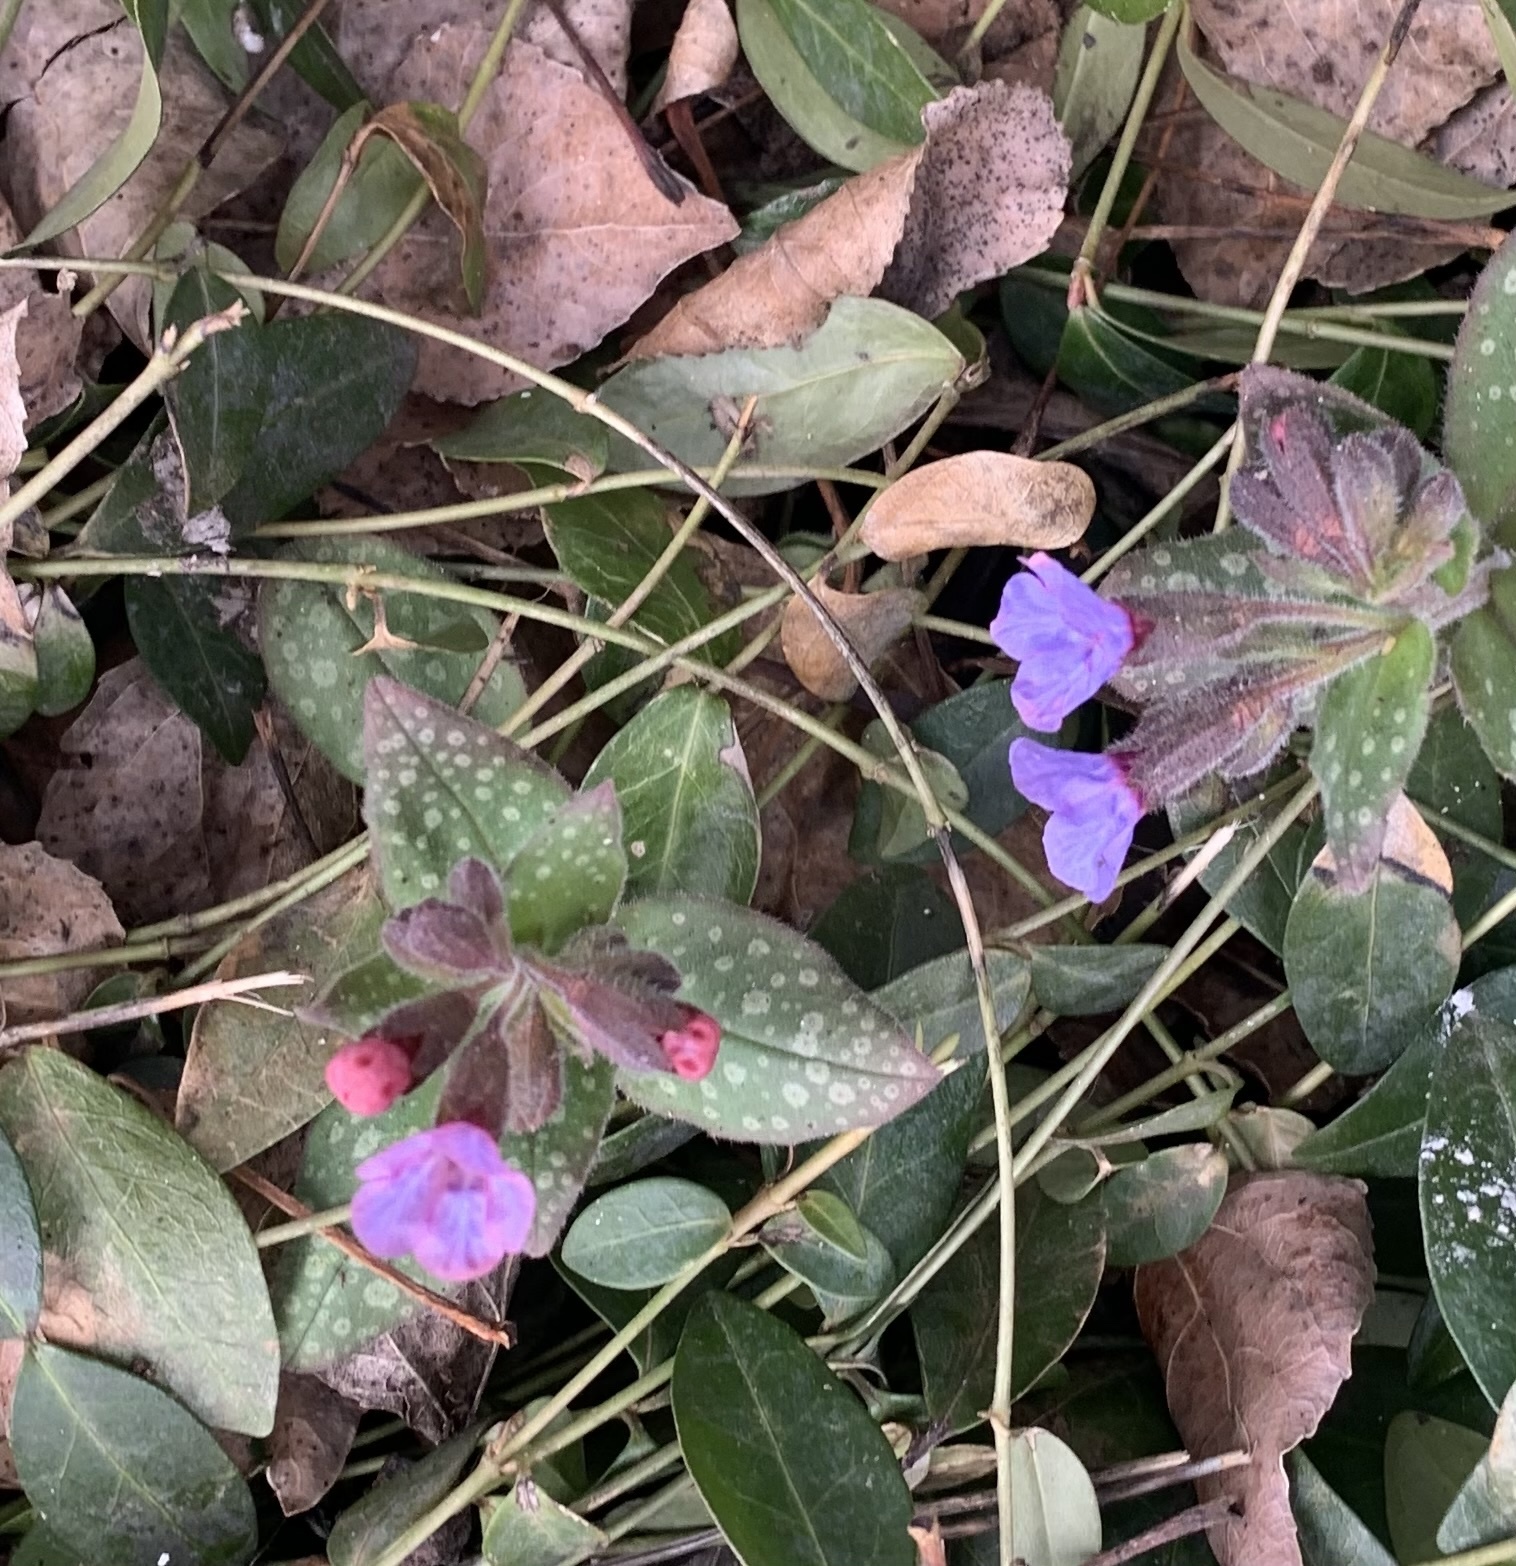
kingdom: Plantae
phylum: Tracheophyta
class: Magnoliopsida
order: Boraginales
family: Boraginaceae
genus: Pulmonaria
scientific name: Pulmonaria officinalis
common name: Lungwort
